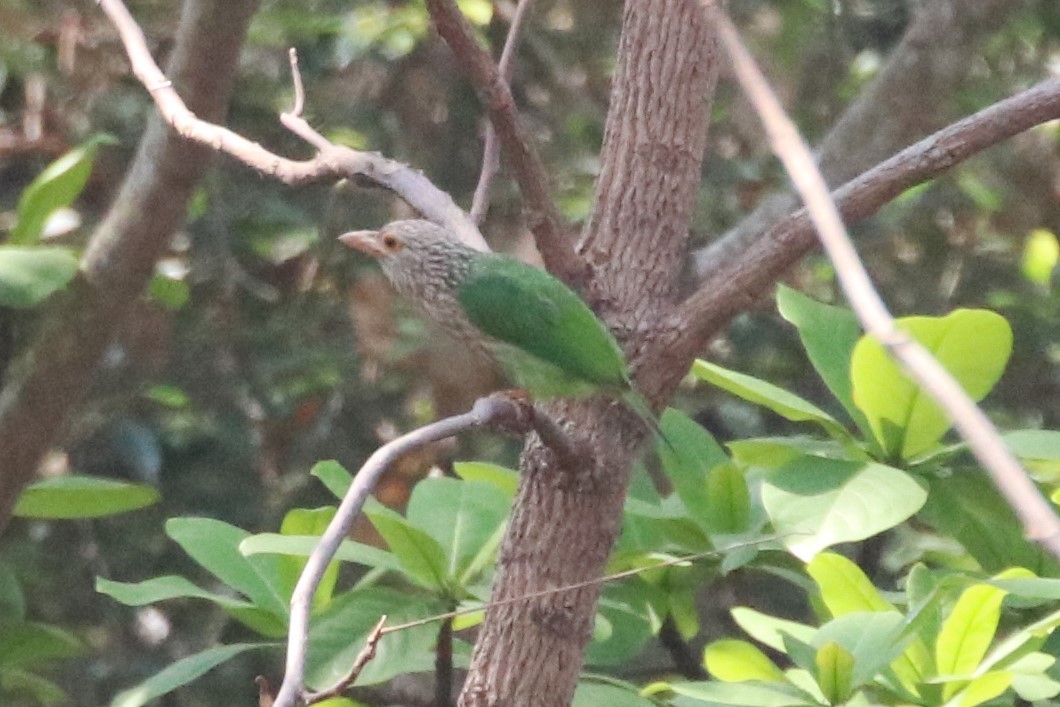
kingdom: Animalia
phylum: Chordata
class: Aves
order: Piciformes
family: Megalaimidae
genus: Psilopogon
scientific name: Psilopogon lineatus
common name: Lineated barbet
